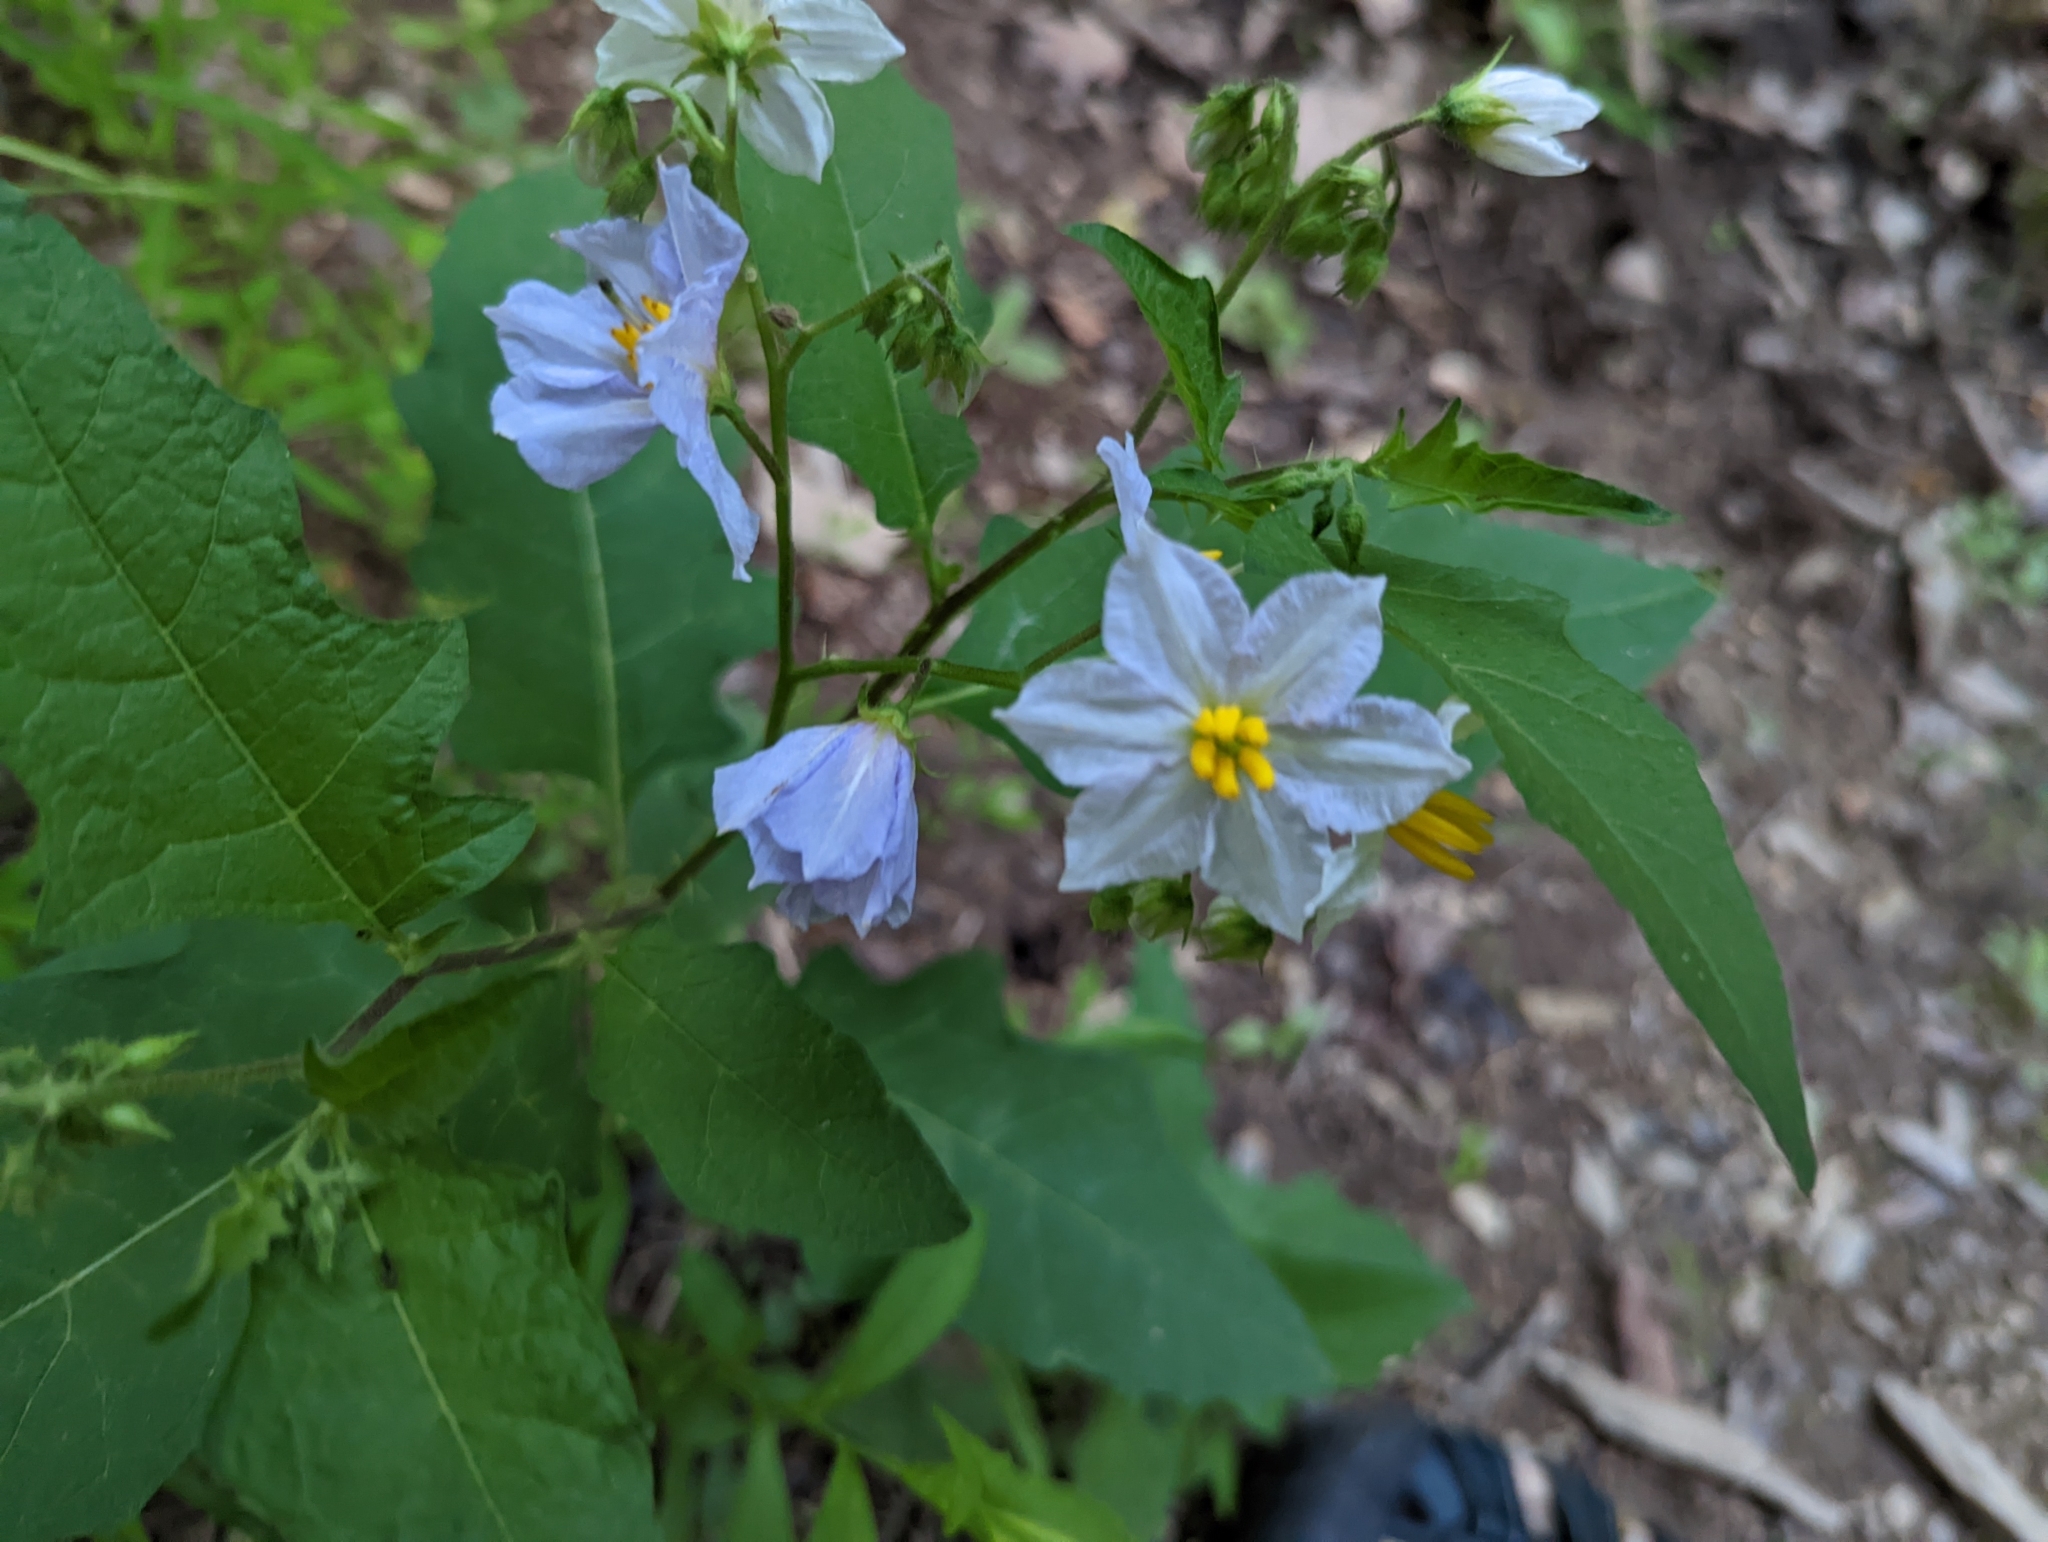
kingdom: Plantae
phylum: Tracheophyta
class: Magnoliopsida
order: Solanales
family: Solanaceae
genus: Solanum
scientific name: Solanum carolinense
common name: Horse-nettle
